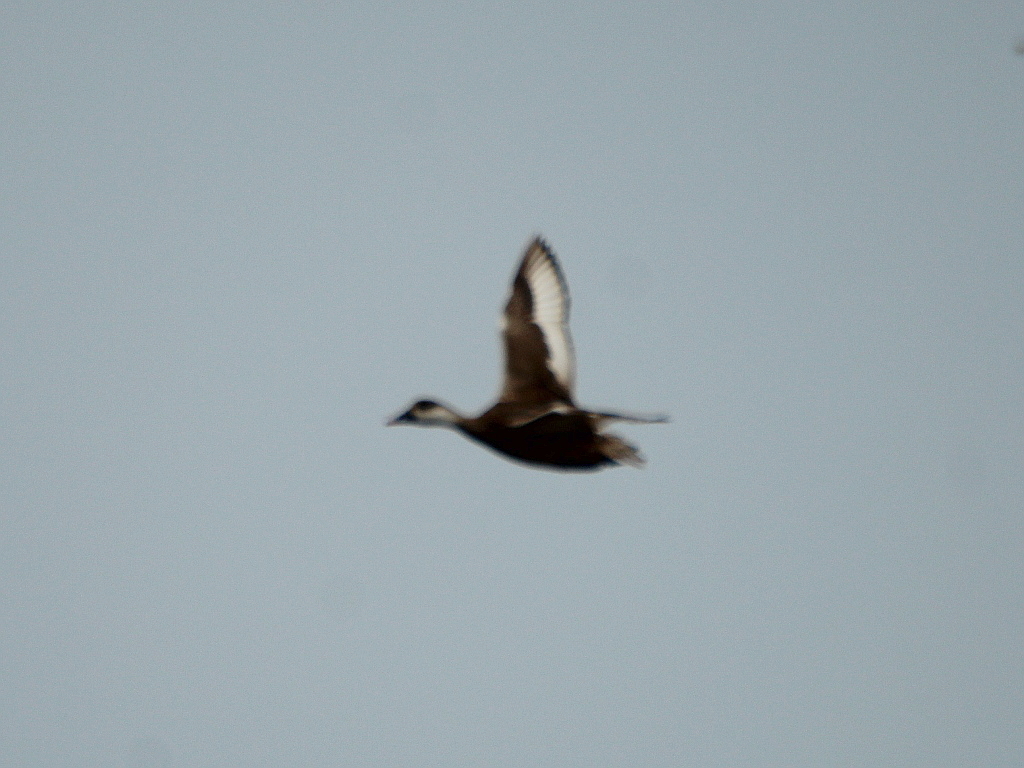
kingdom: Animalia
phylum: Chordata
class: Aves
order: Anseriformes
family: Anatidae
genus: Netta
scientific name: Netta rufina
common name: Red-crested pochard
